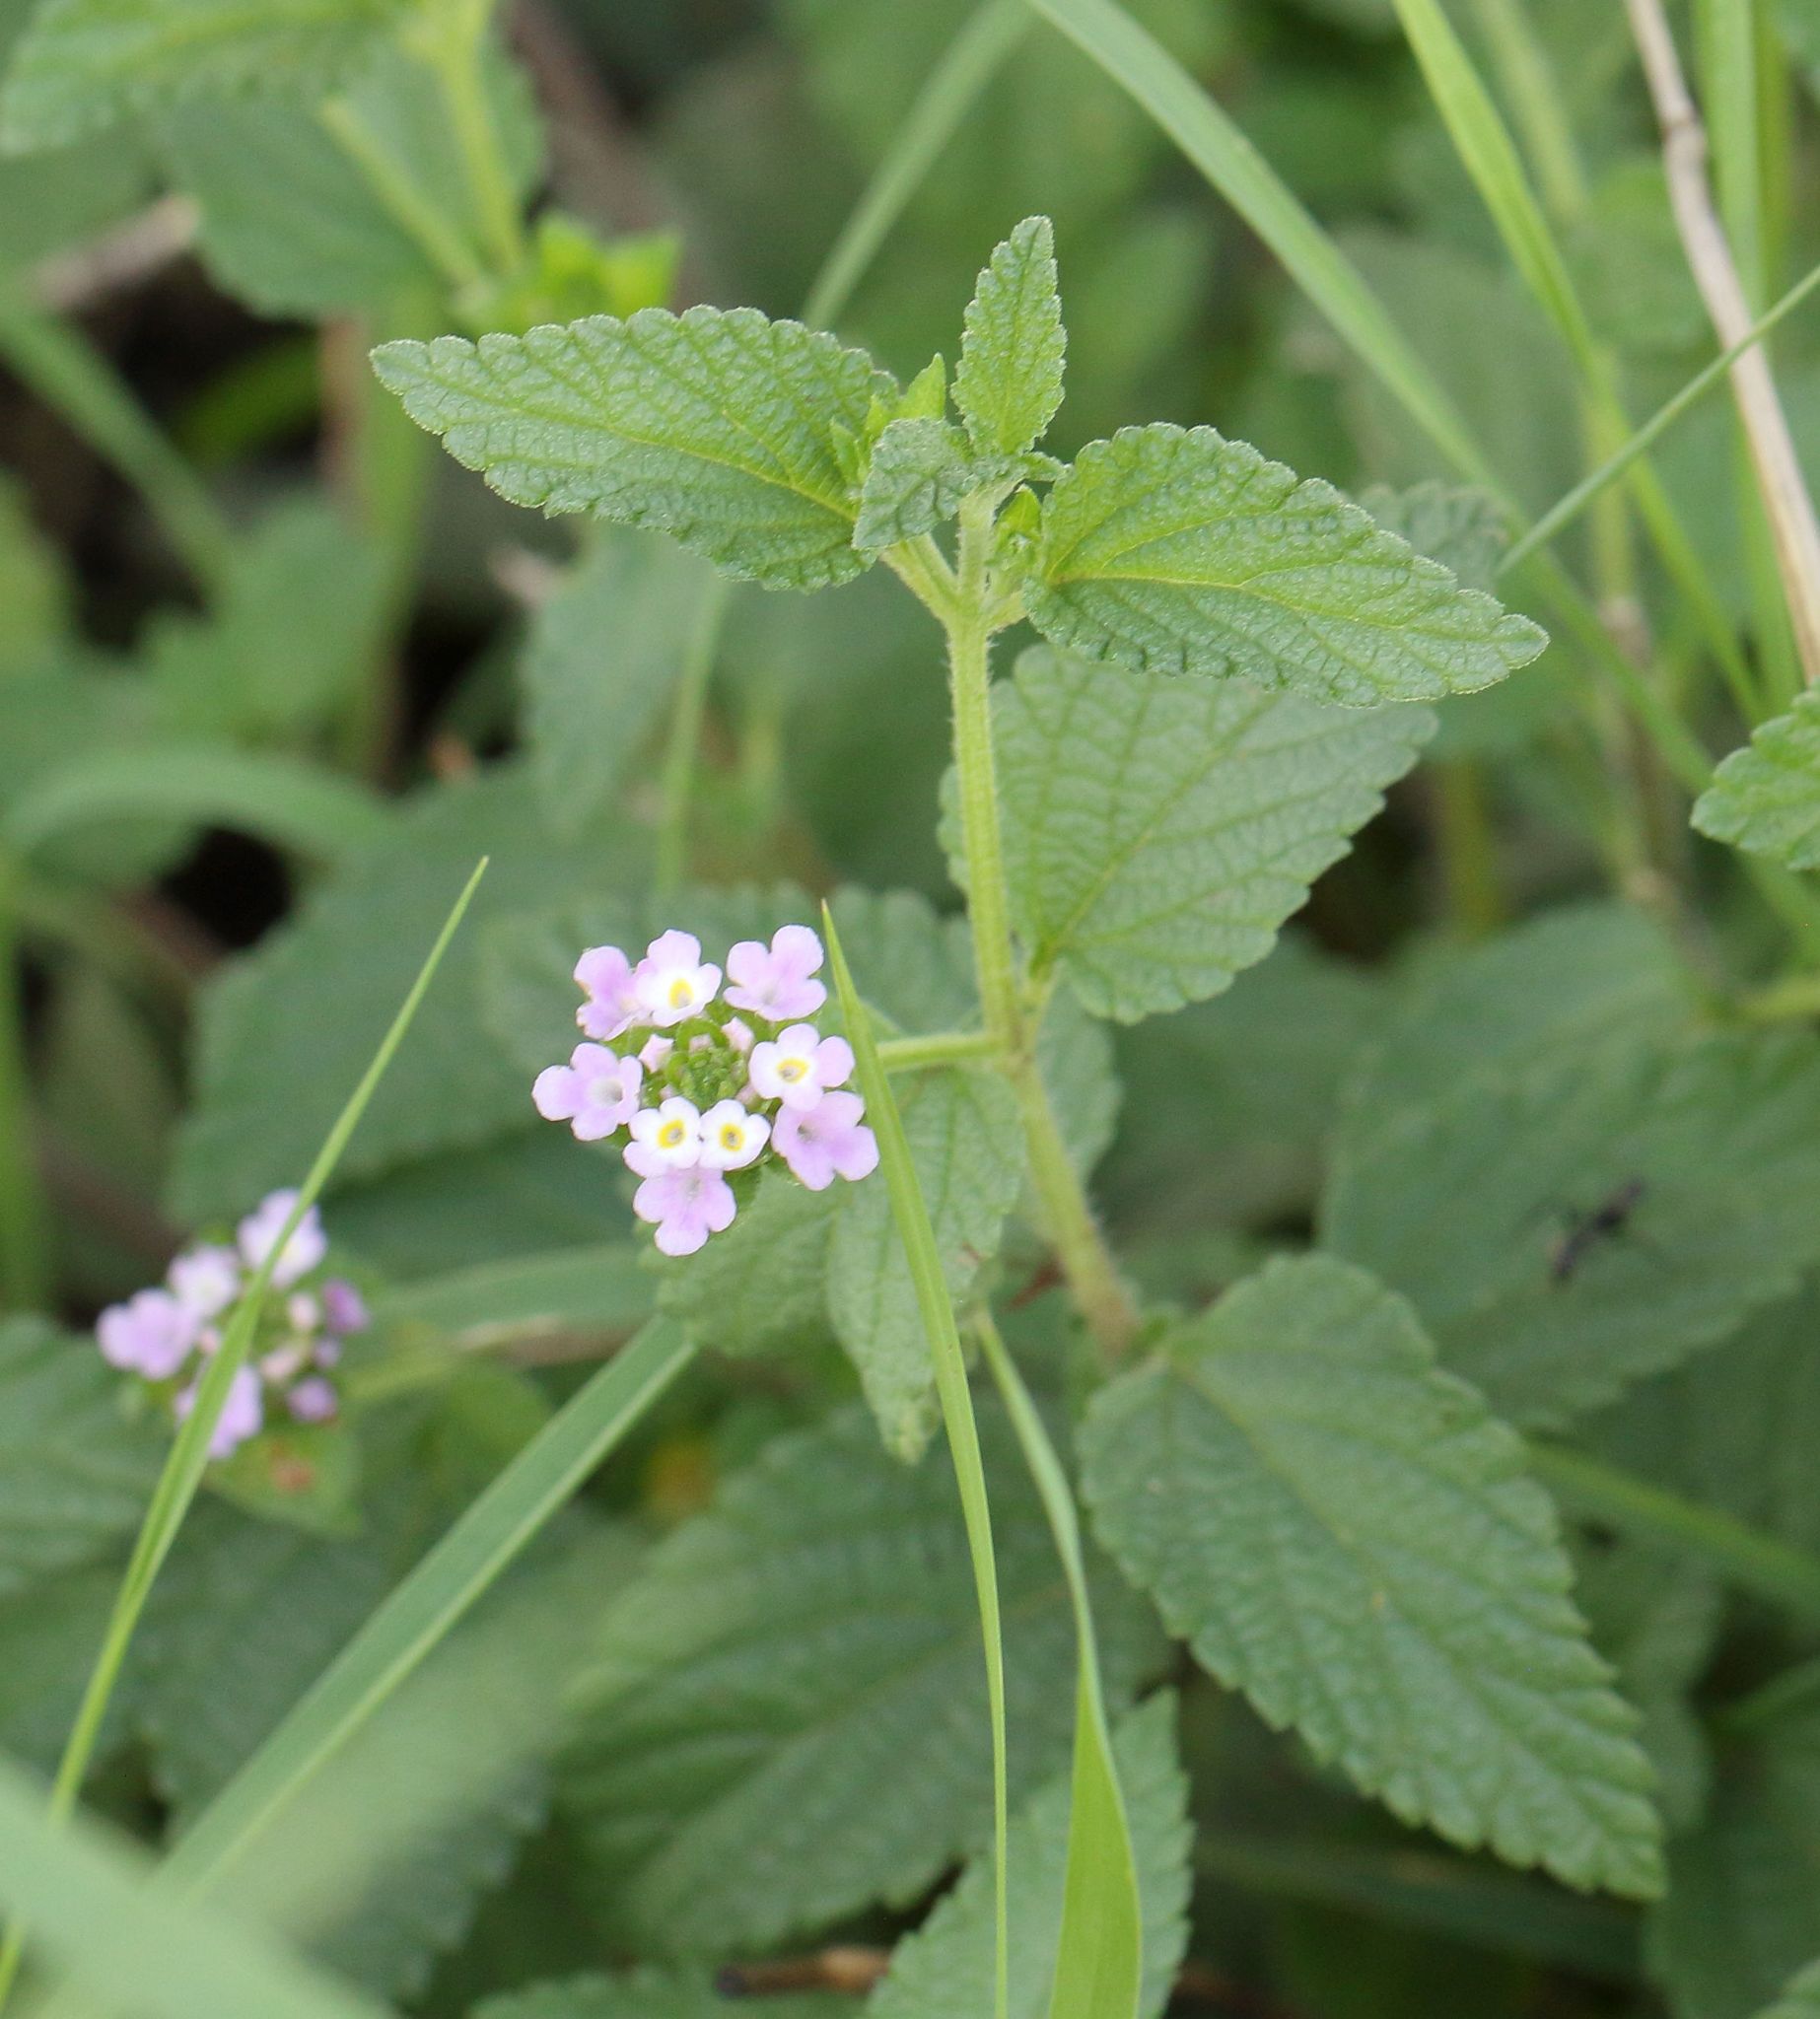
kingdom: Plantae
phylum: Tracheophyta
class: Magnoliopsida
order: Lamiales
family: Verbenaceae
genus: Lantana
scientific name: Lantana rugosa
